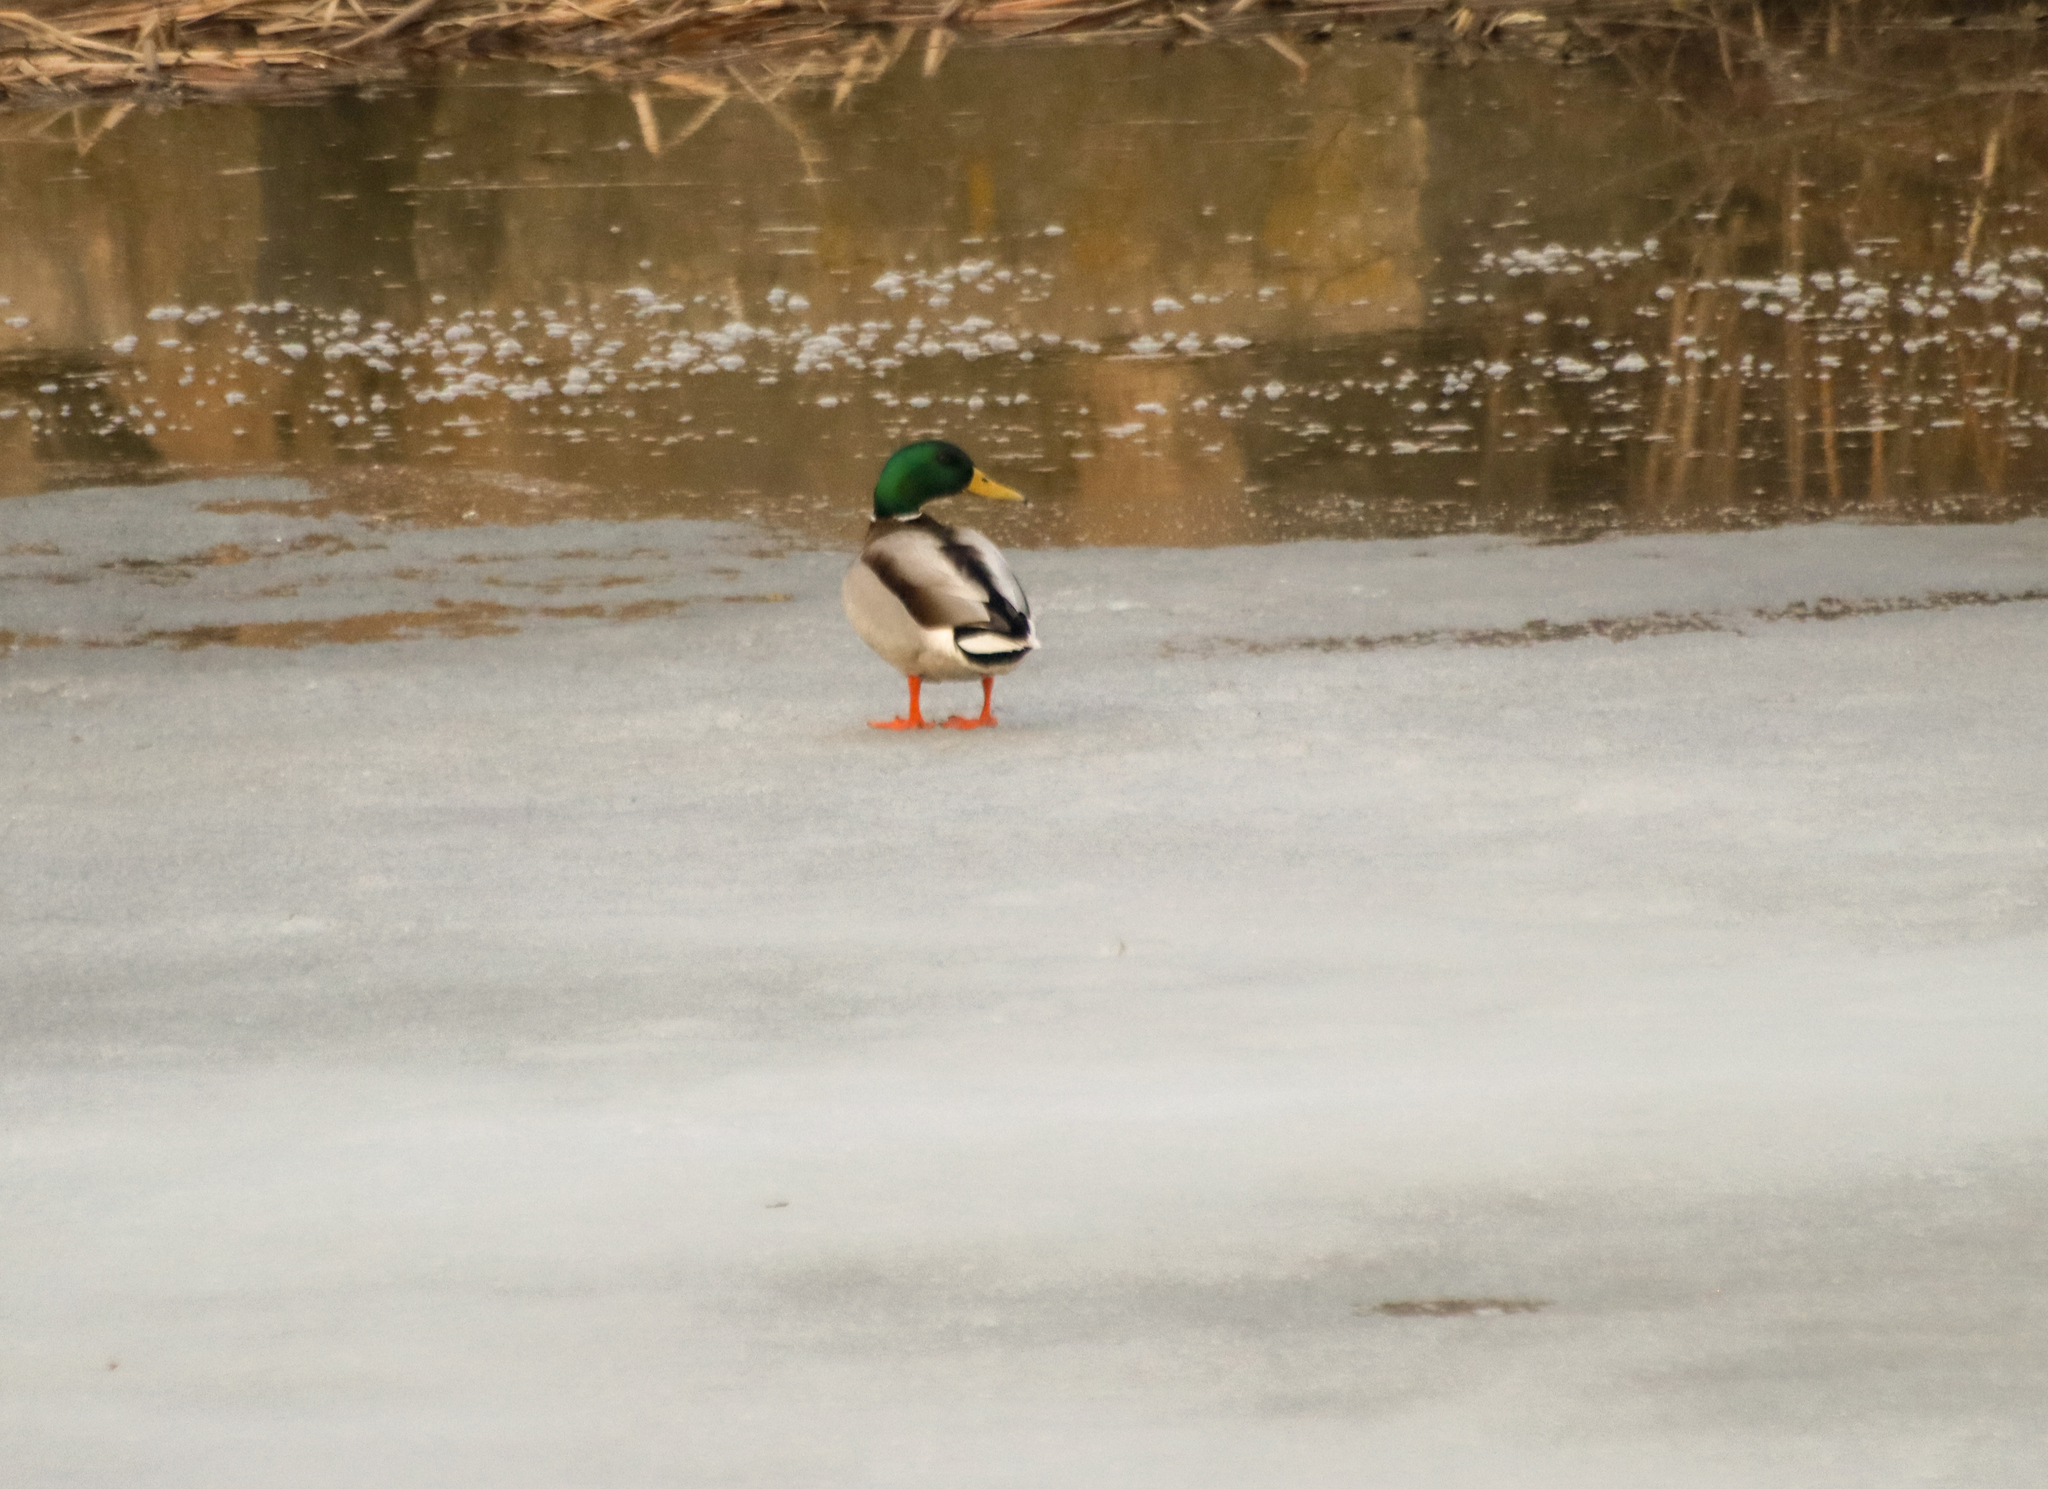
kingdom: Animalia
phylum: Chordata
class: Aves
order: Anseriformes
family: Anatidae
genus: Anas
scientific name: Anas platyrhynchos
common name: Mallard
